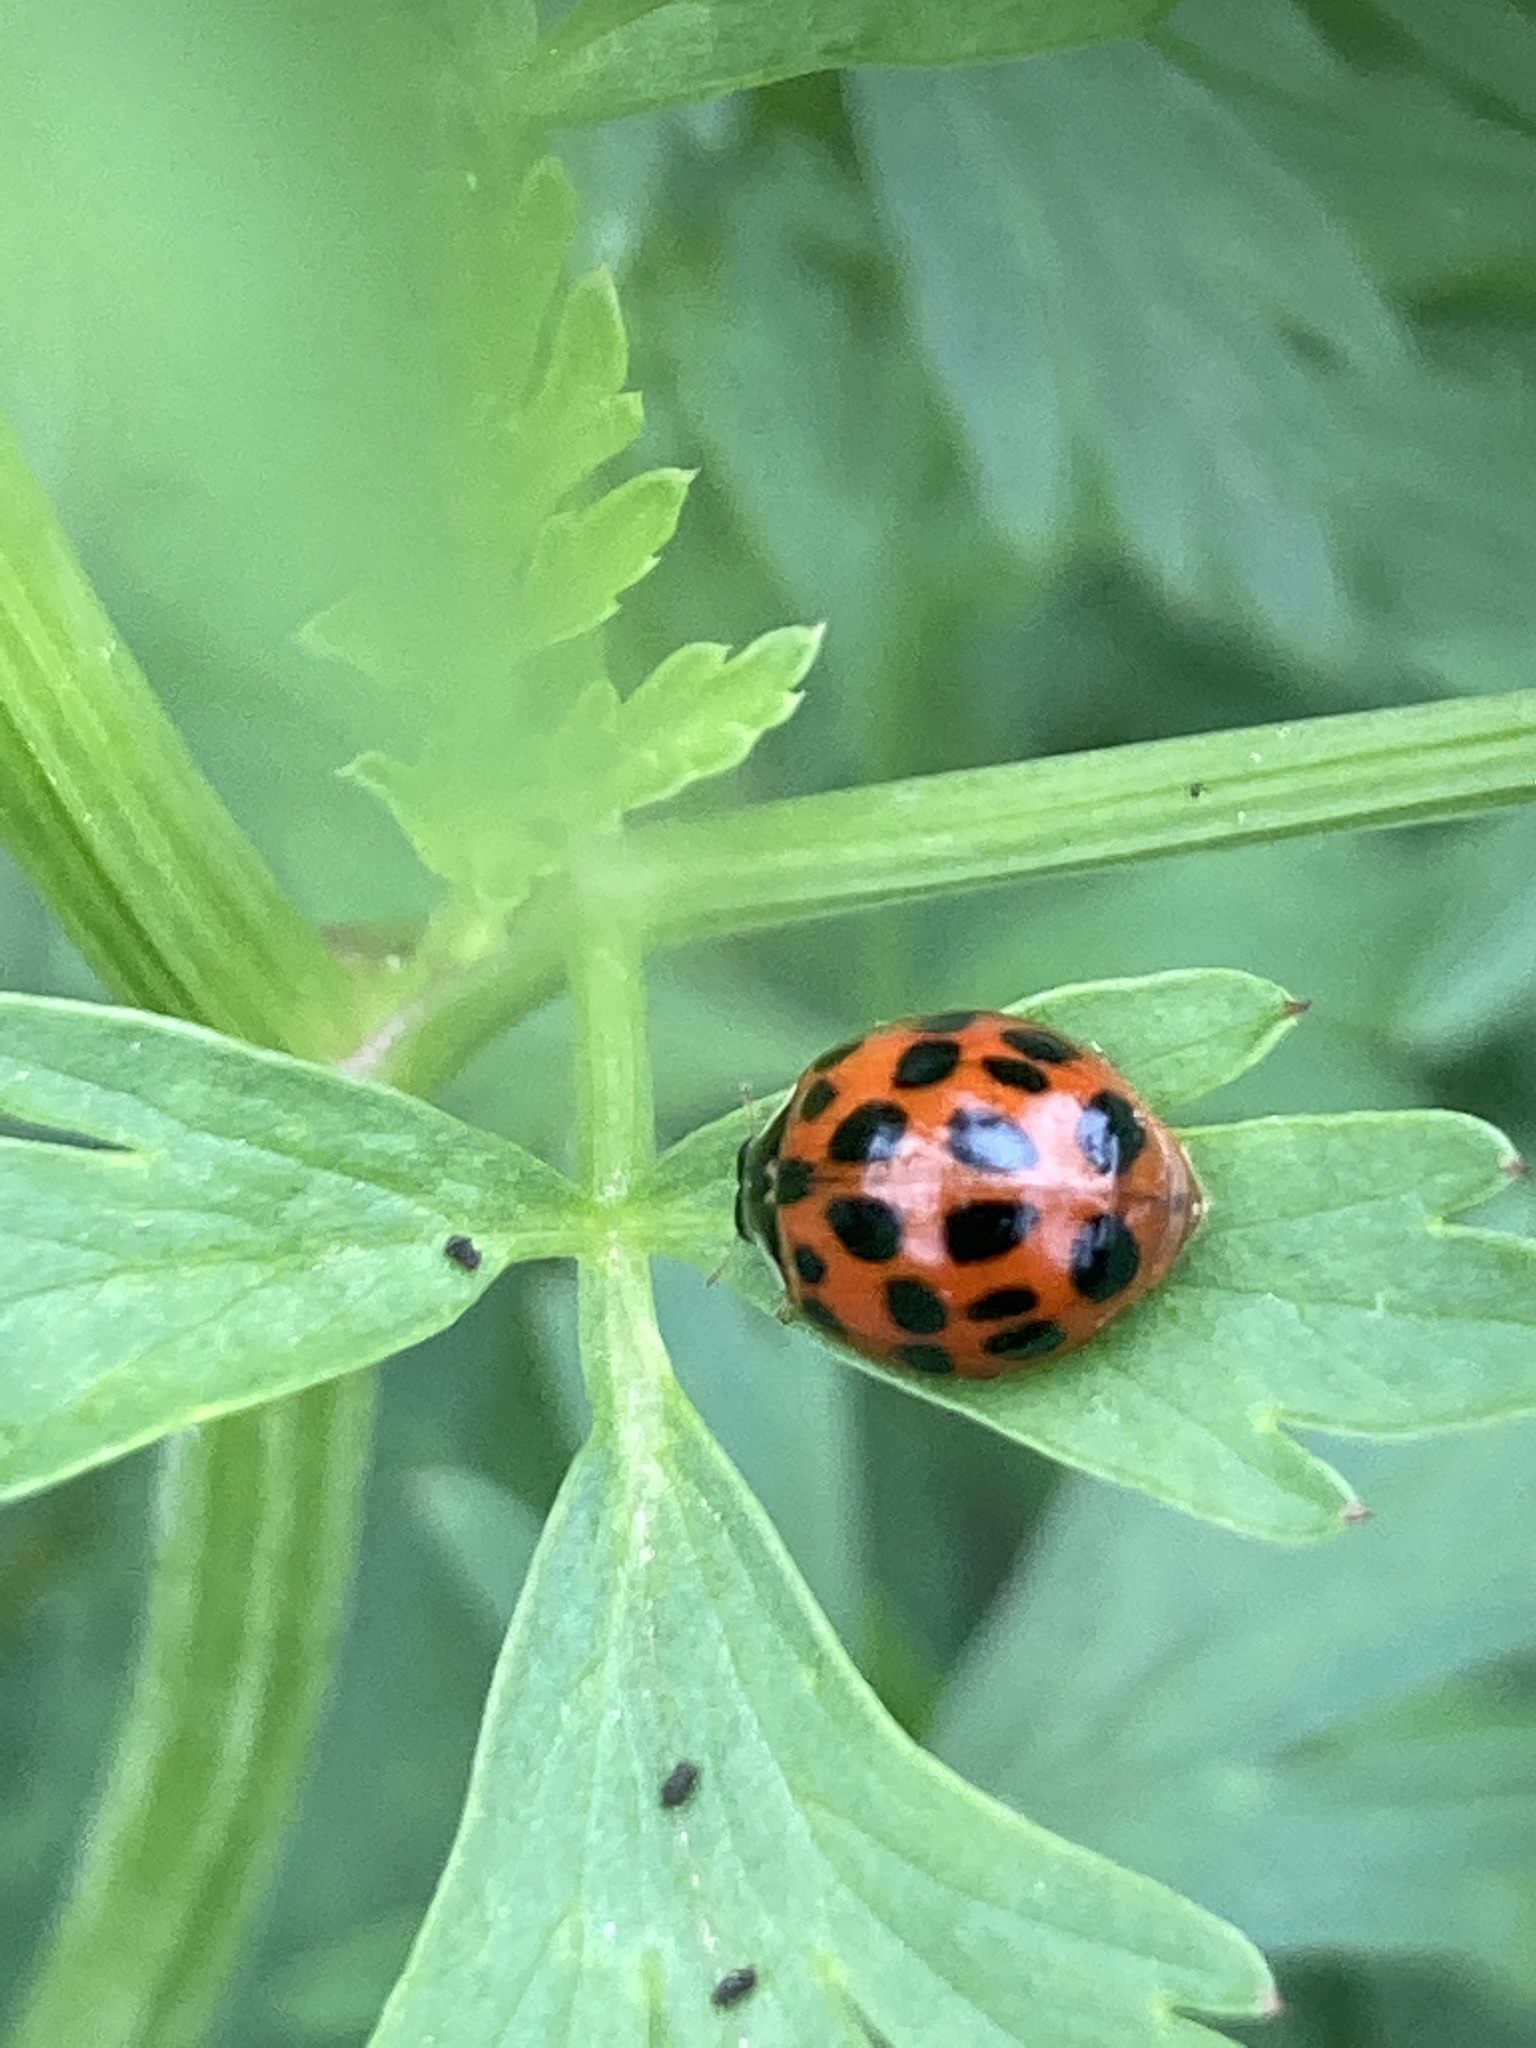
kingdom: Animalia
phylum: Arthropoda
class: Insecta
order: Coleoptera
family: Coccinellidae
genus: Harmonia
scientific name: Harmonia axyridis
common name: Harlequin ladybird
